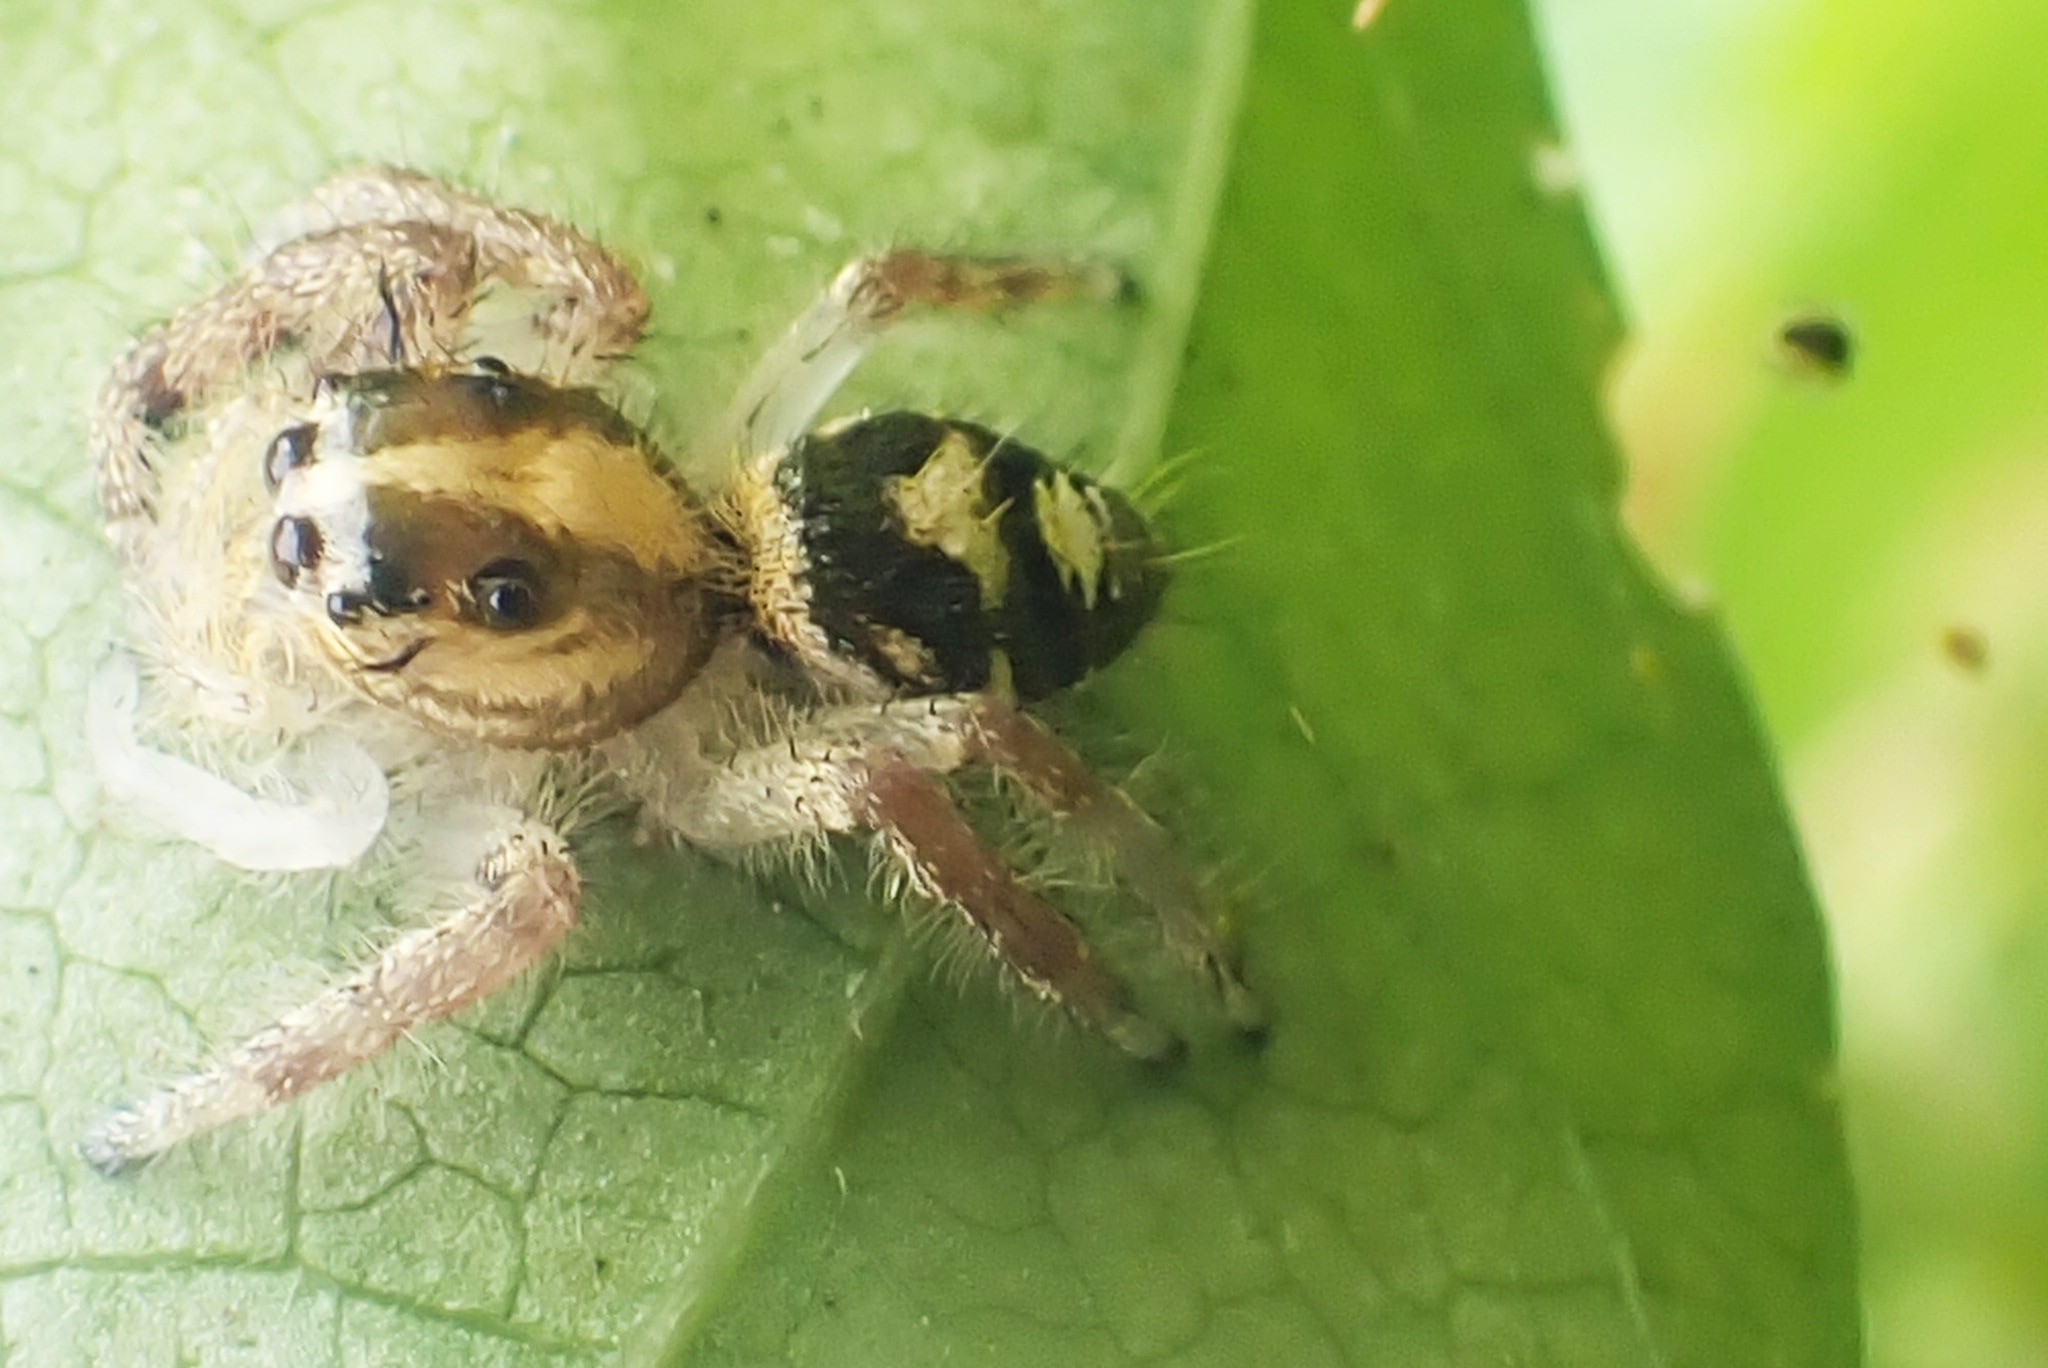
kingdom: Animalia
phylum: Arthropoda
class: Arachnida
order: Araneae
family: Salticidae
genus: Hyllus
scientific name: Hyllus diardi
